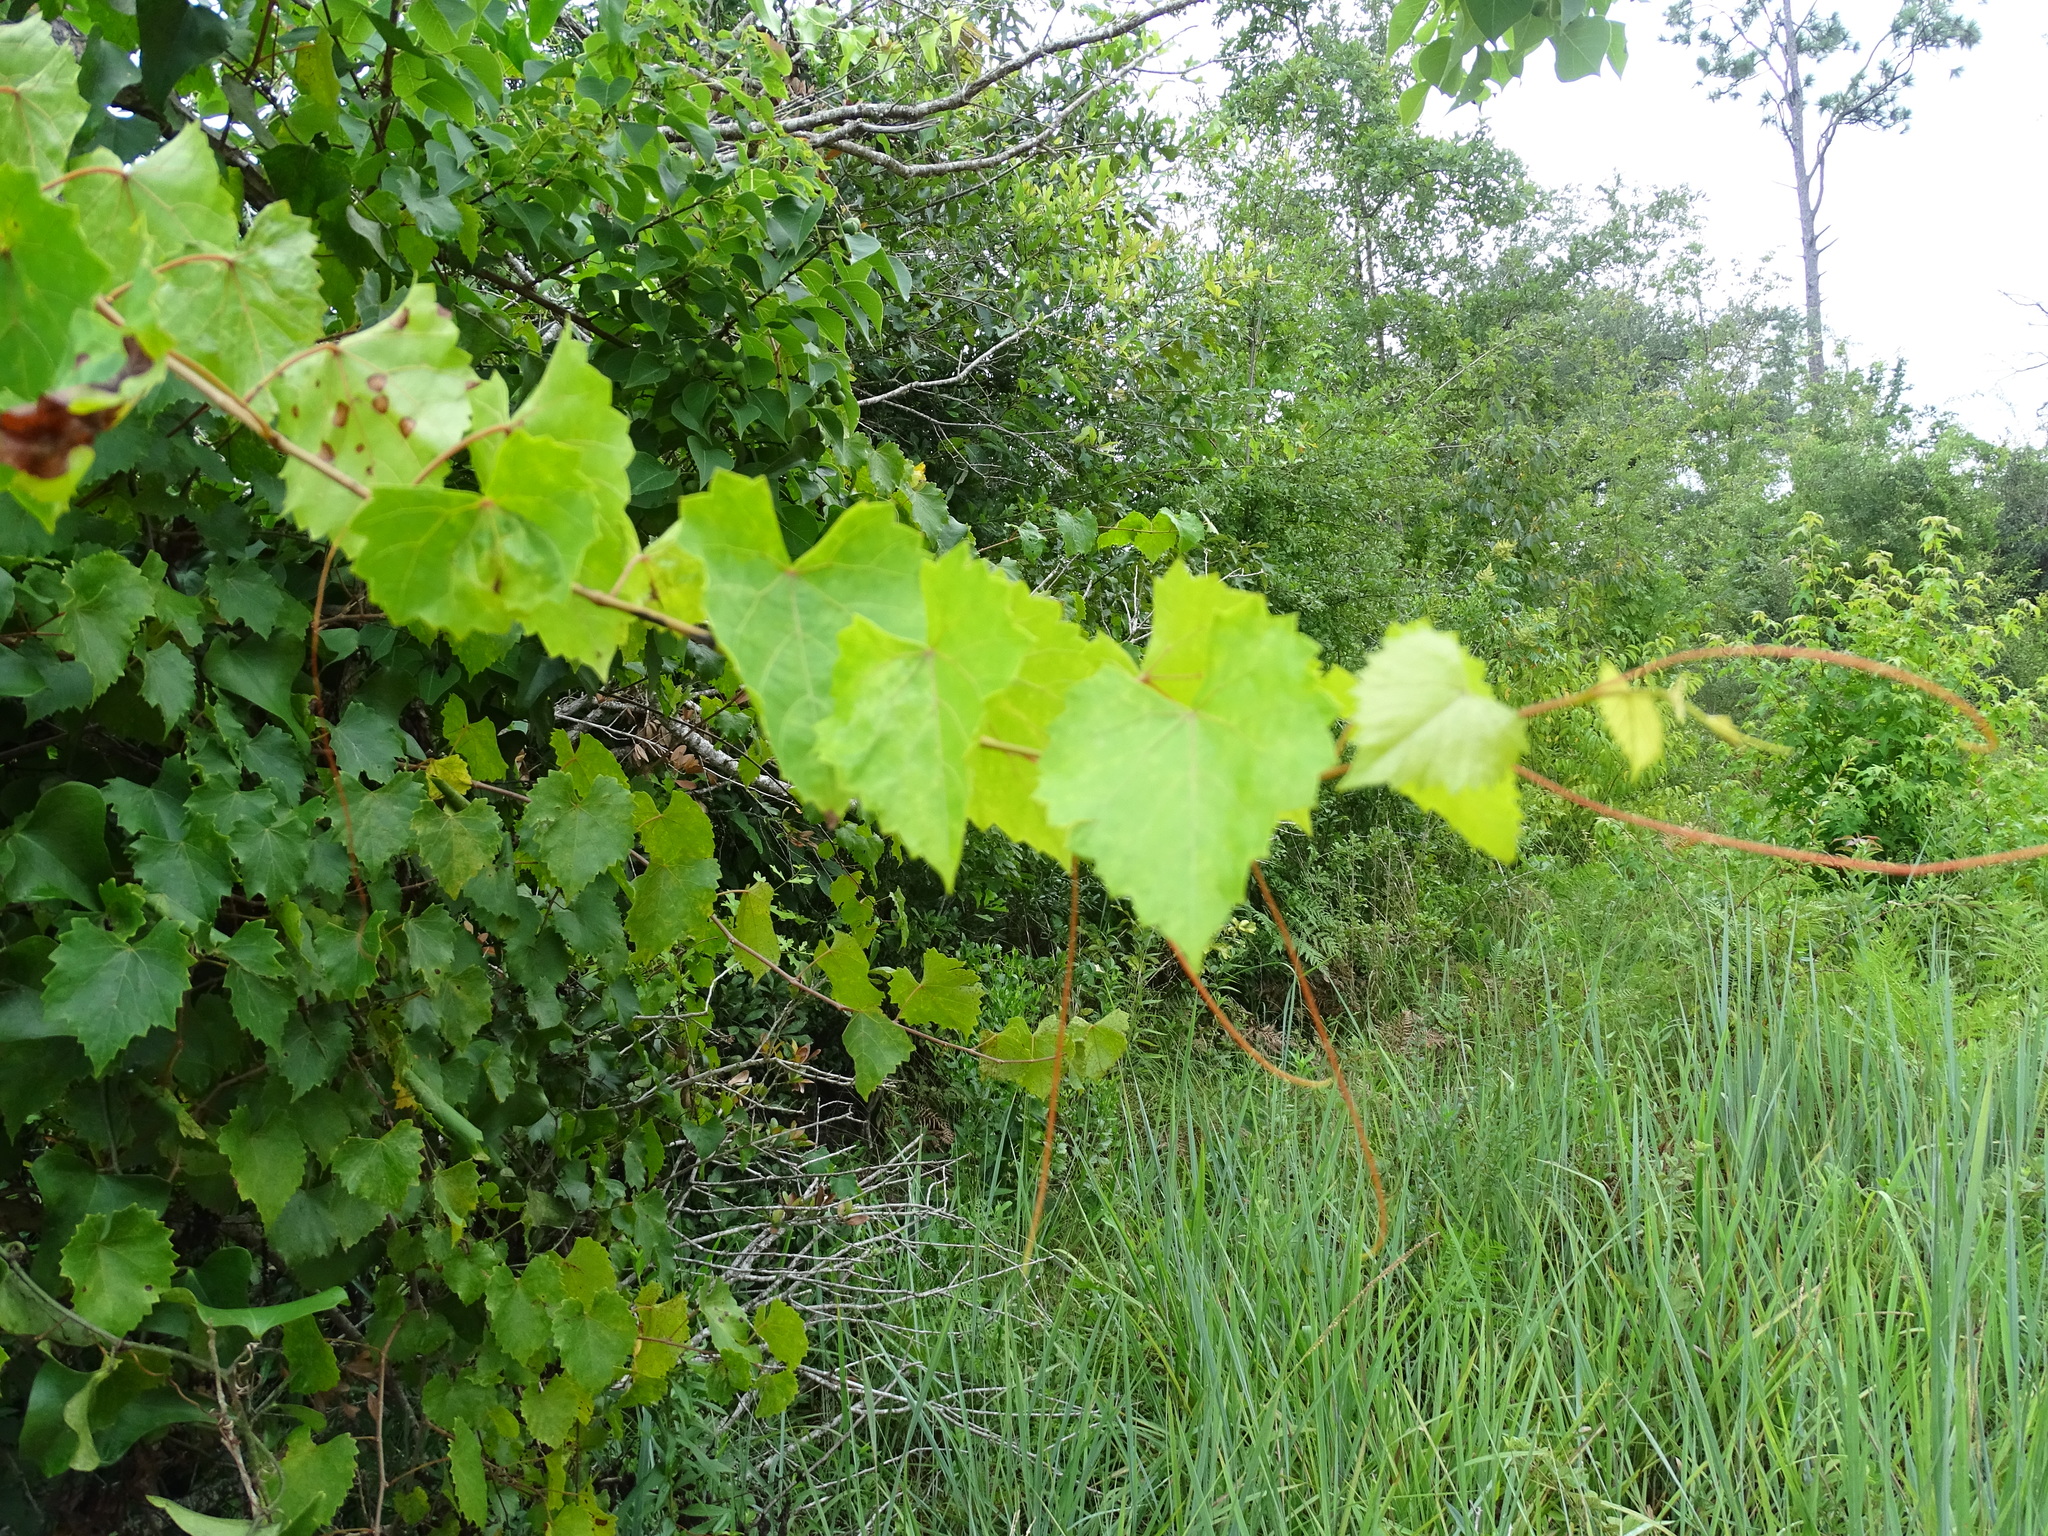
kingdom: Plantae
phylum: Tracheophyta
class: Magnoliopsida
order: Vitales
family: Vitaceae
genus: Vitis
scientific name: Vitis rotundifolia
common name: Muscadine grape
